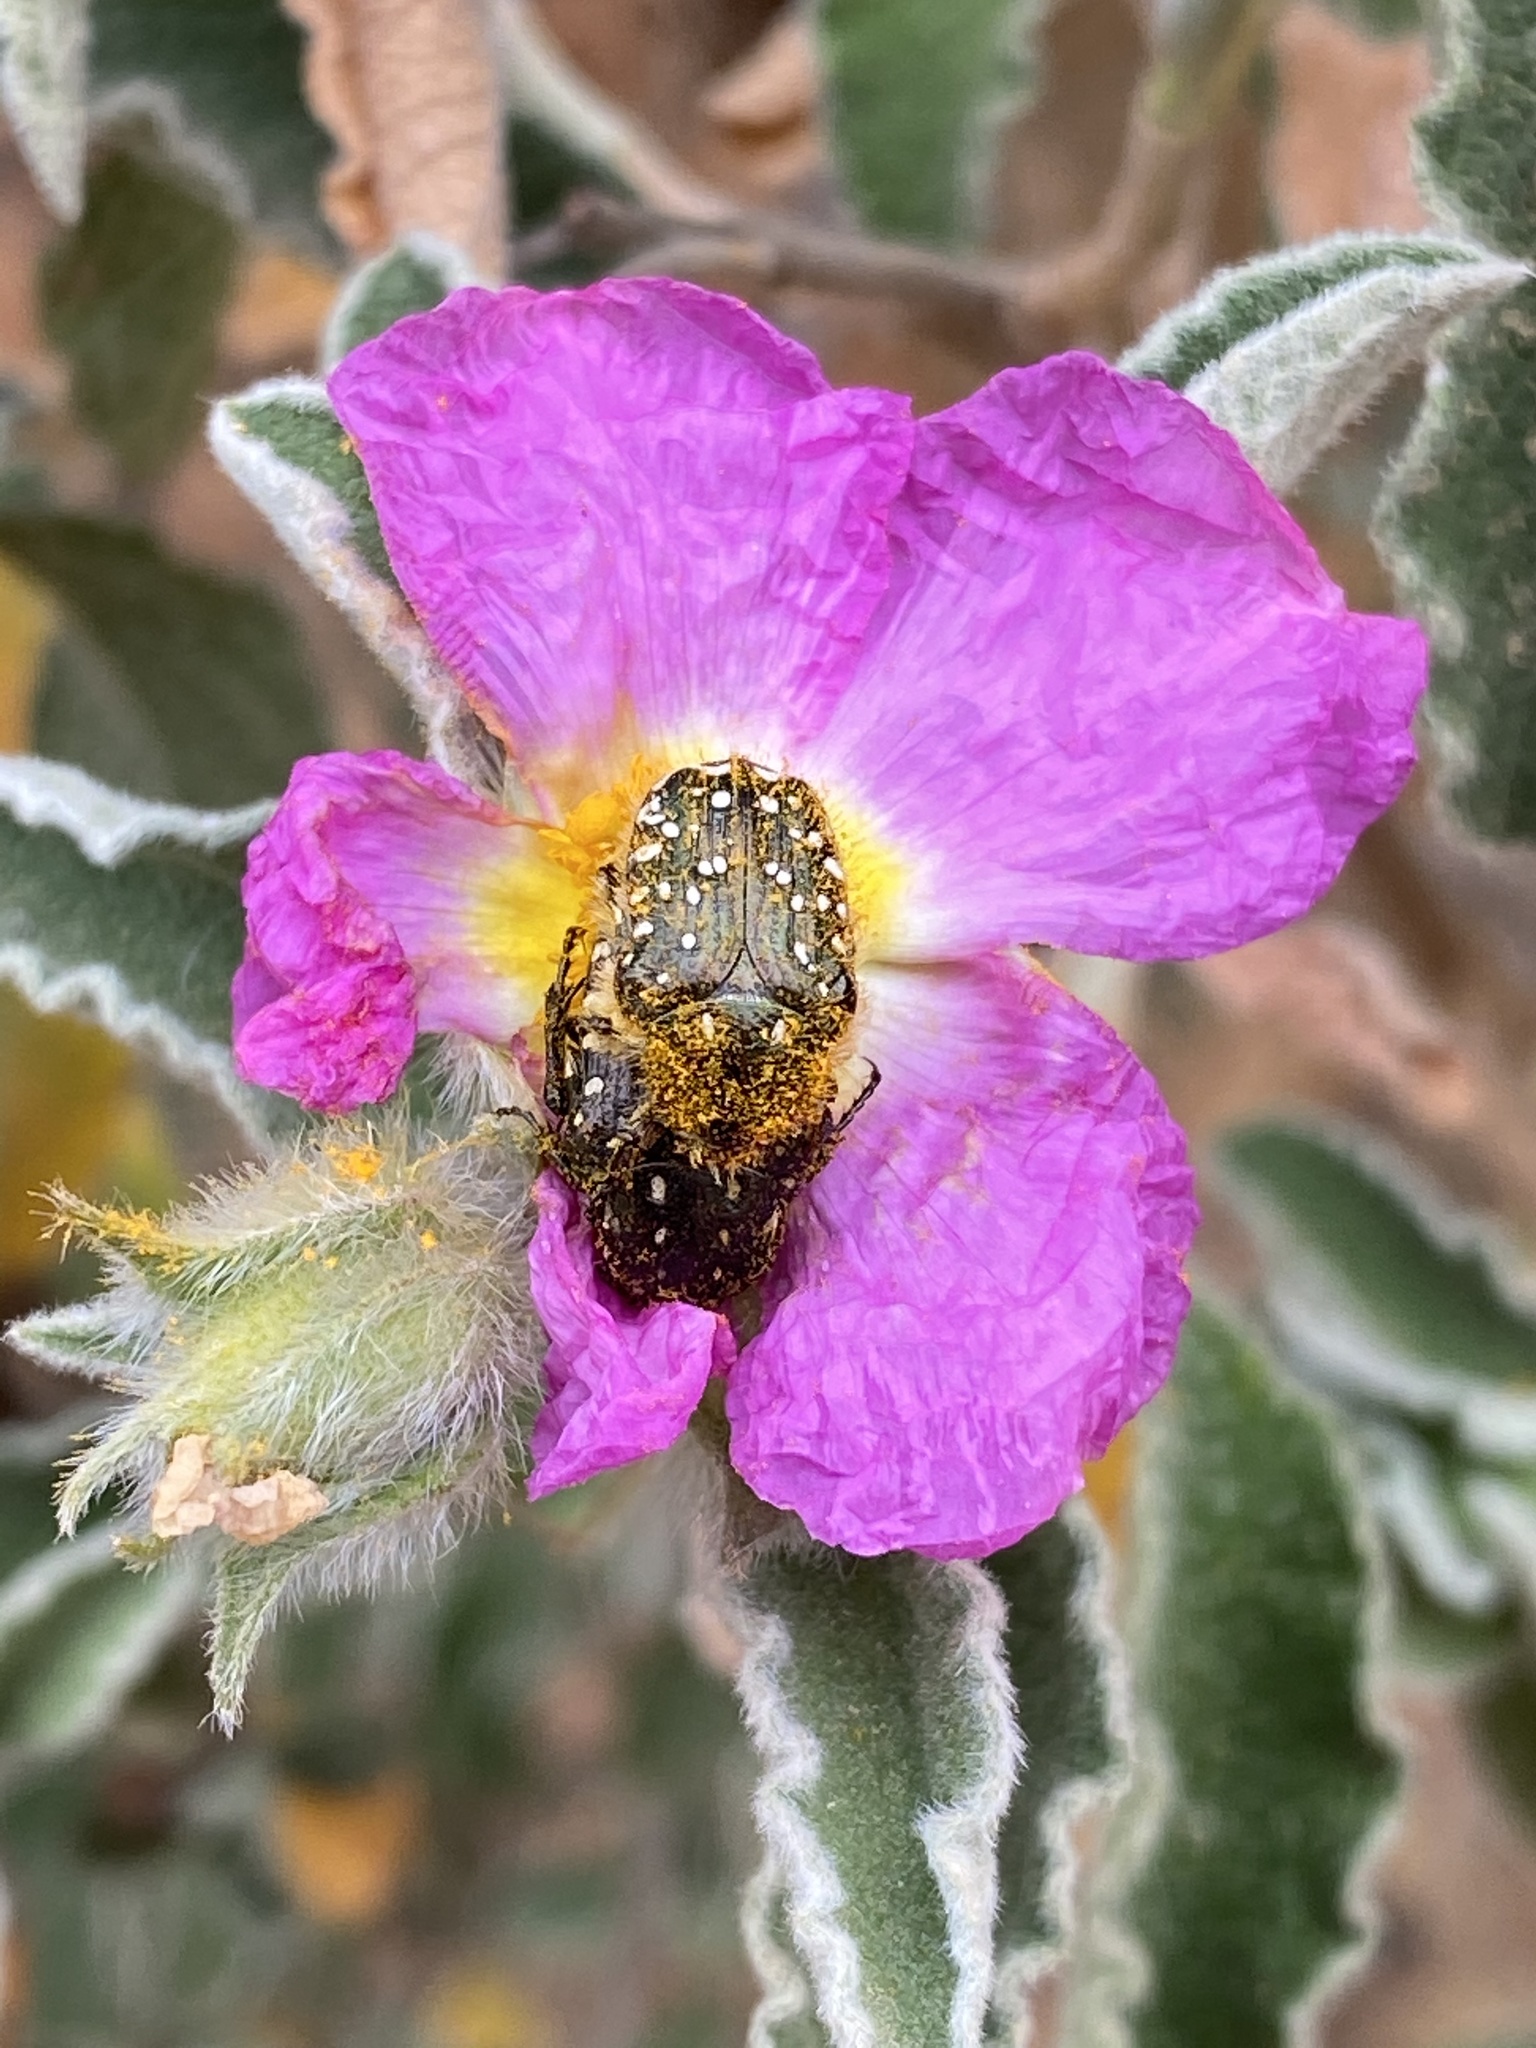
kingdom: Animalia
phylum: Arthropoda
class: Insecta
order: Coleoptera
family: Scarabaeidae
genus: Oxythyrea
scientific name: Oxythyrea funesta
